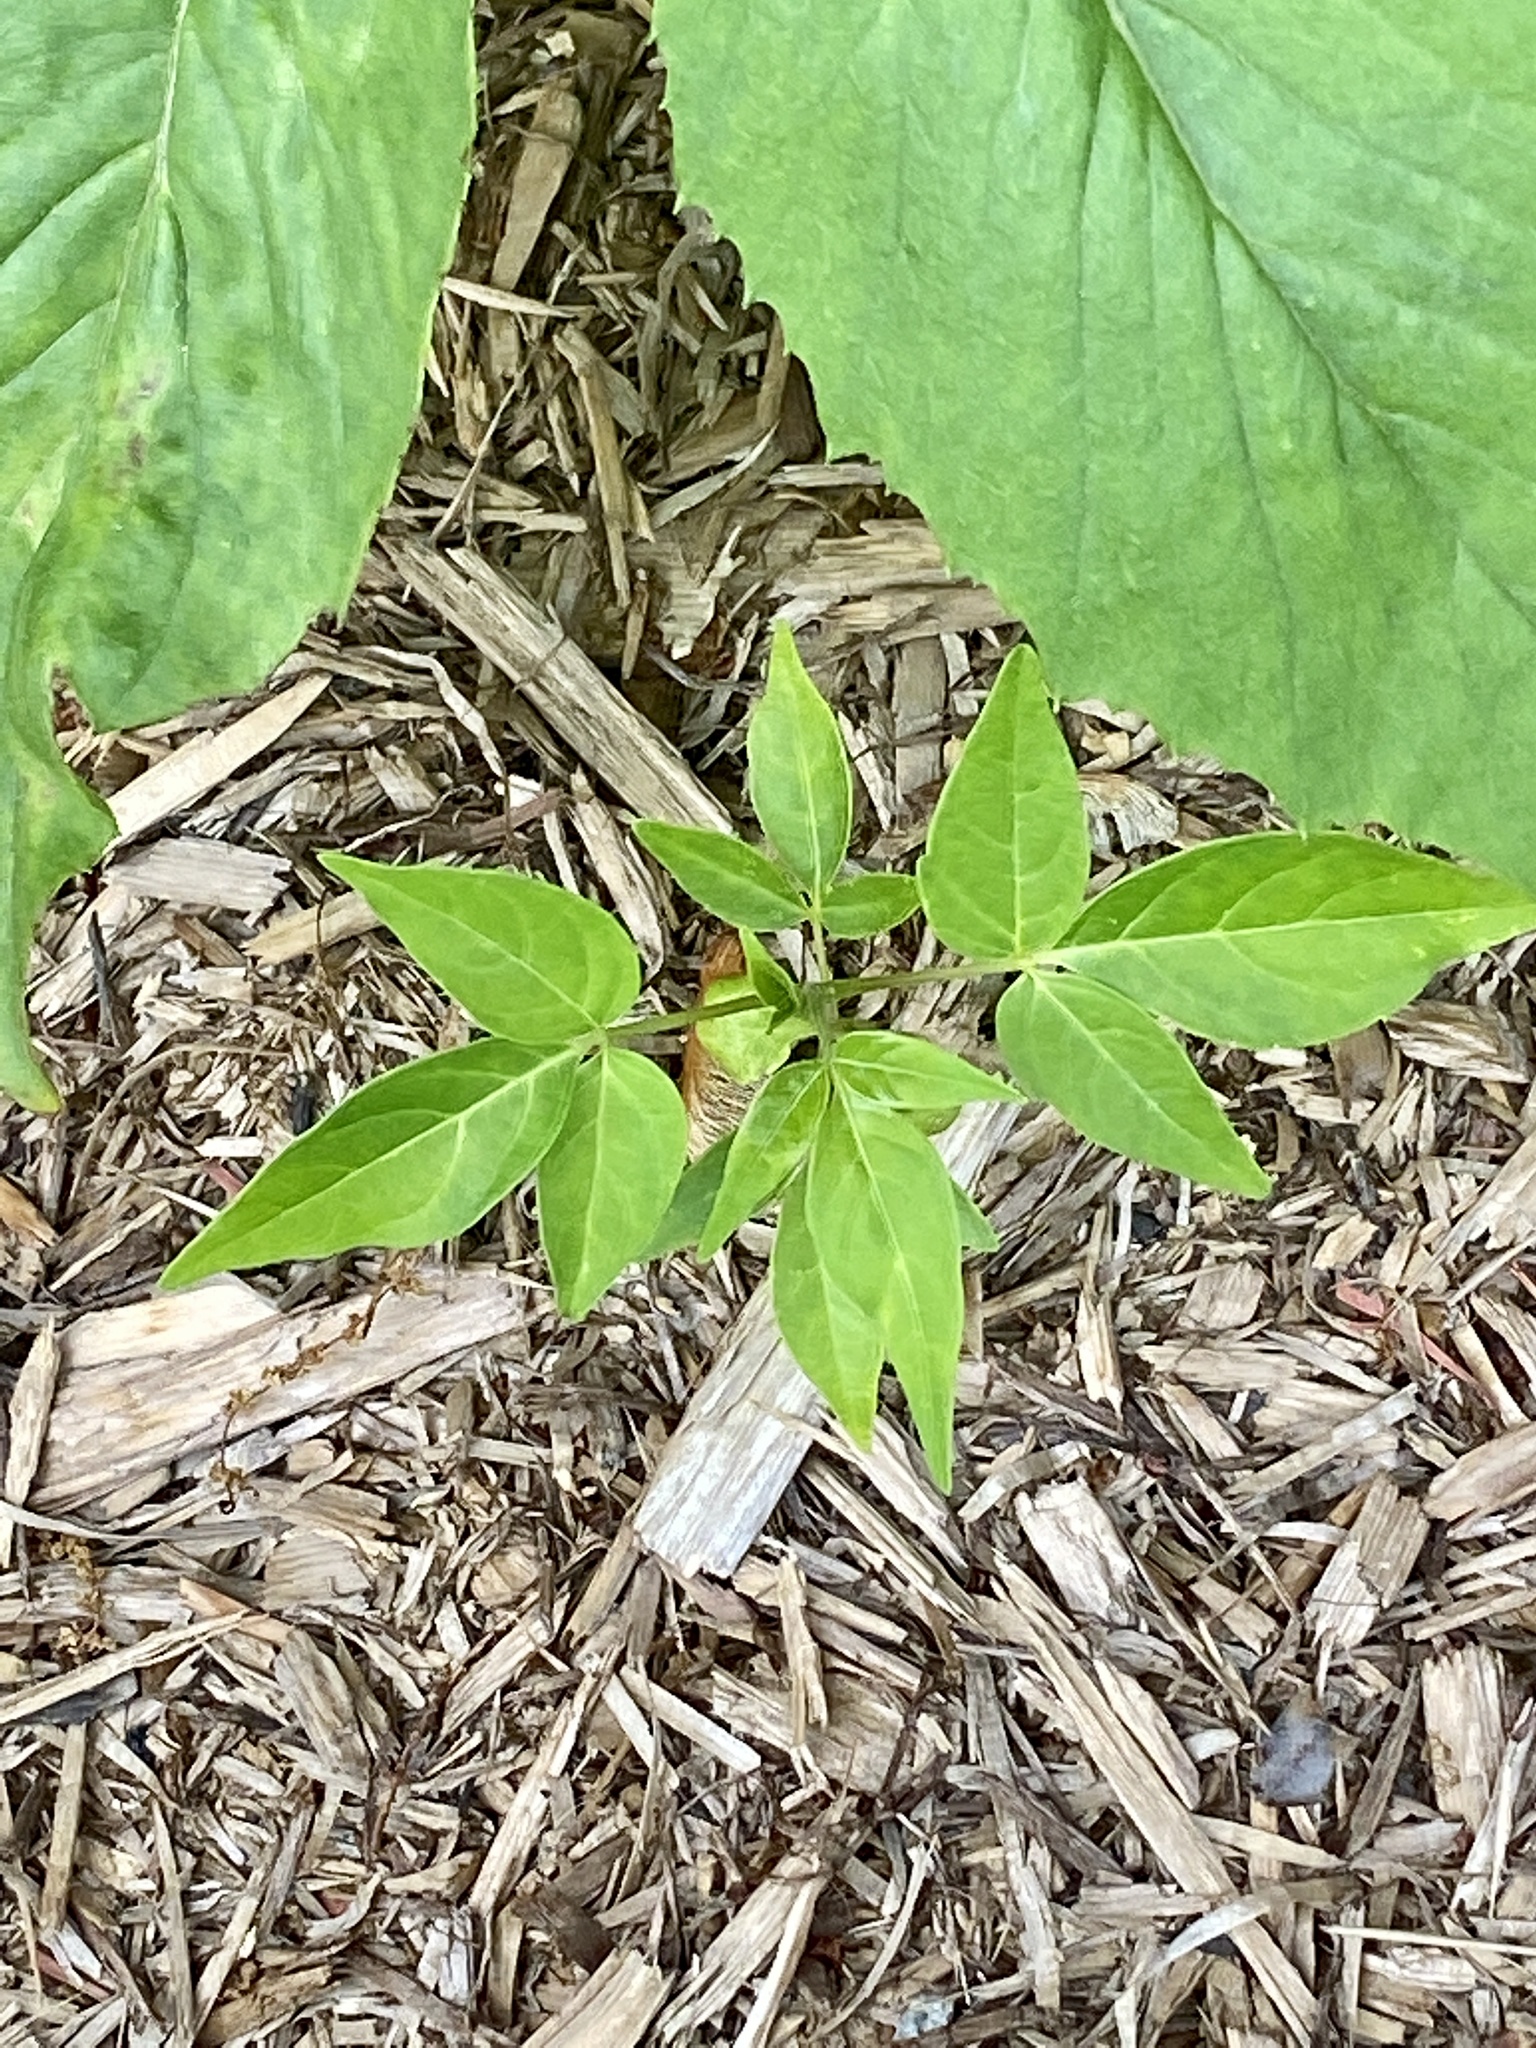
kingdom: Plantae
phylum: Tracheophyta
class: Magnoliopsida
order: Sapindales
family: Simaroubaceae
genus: Ailanthus
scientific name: Ailanthus altissima
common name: Tree-of-heaven
